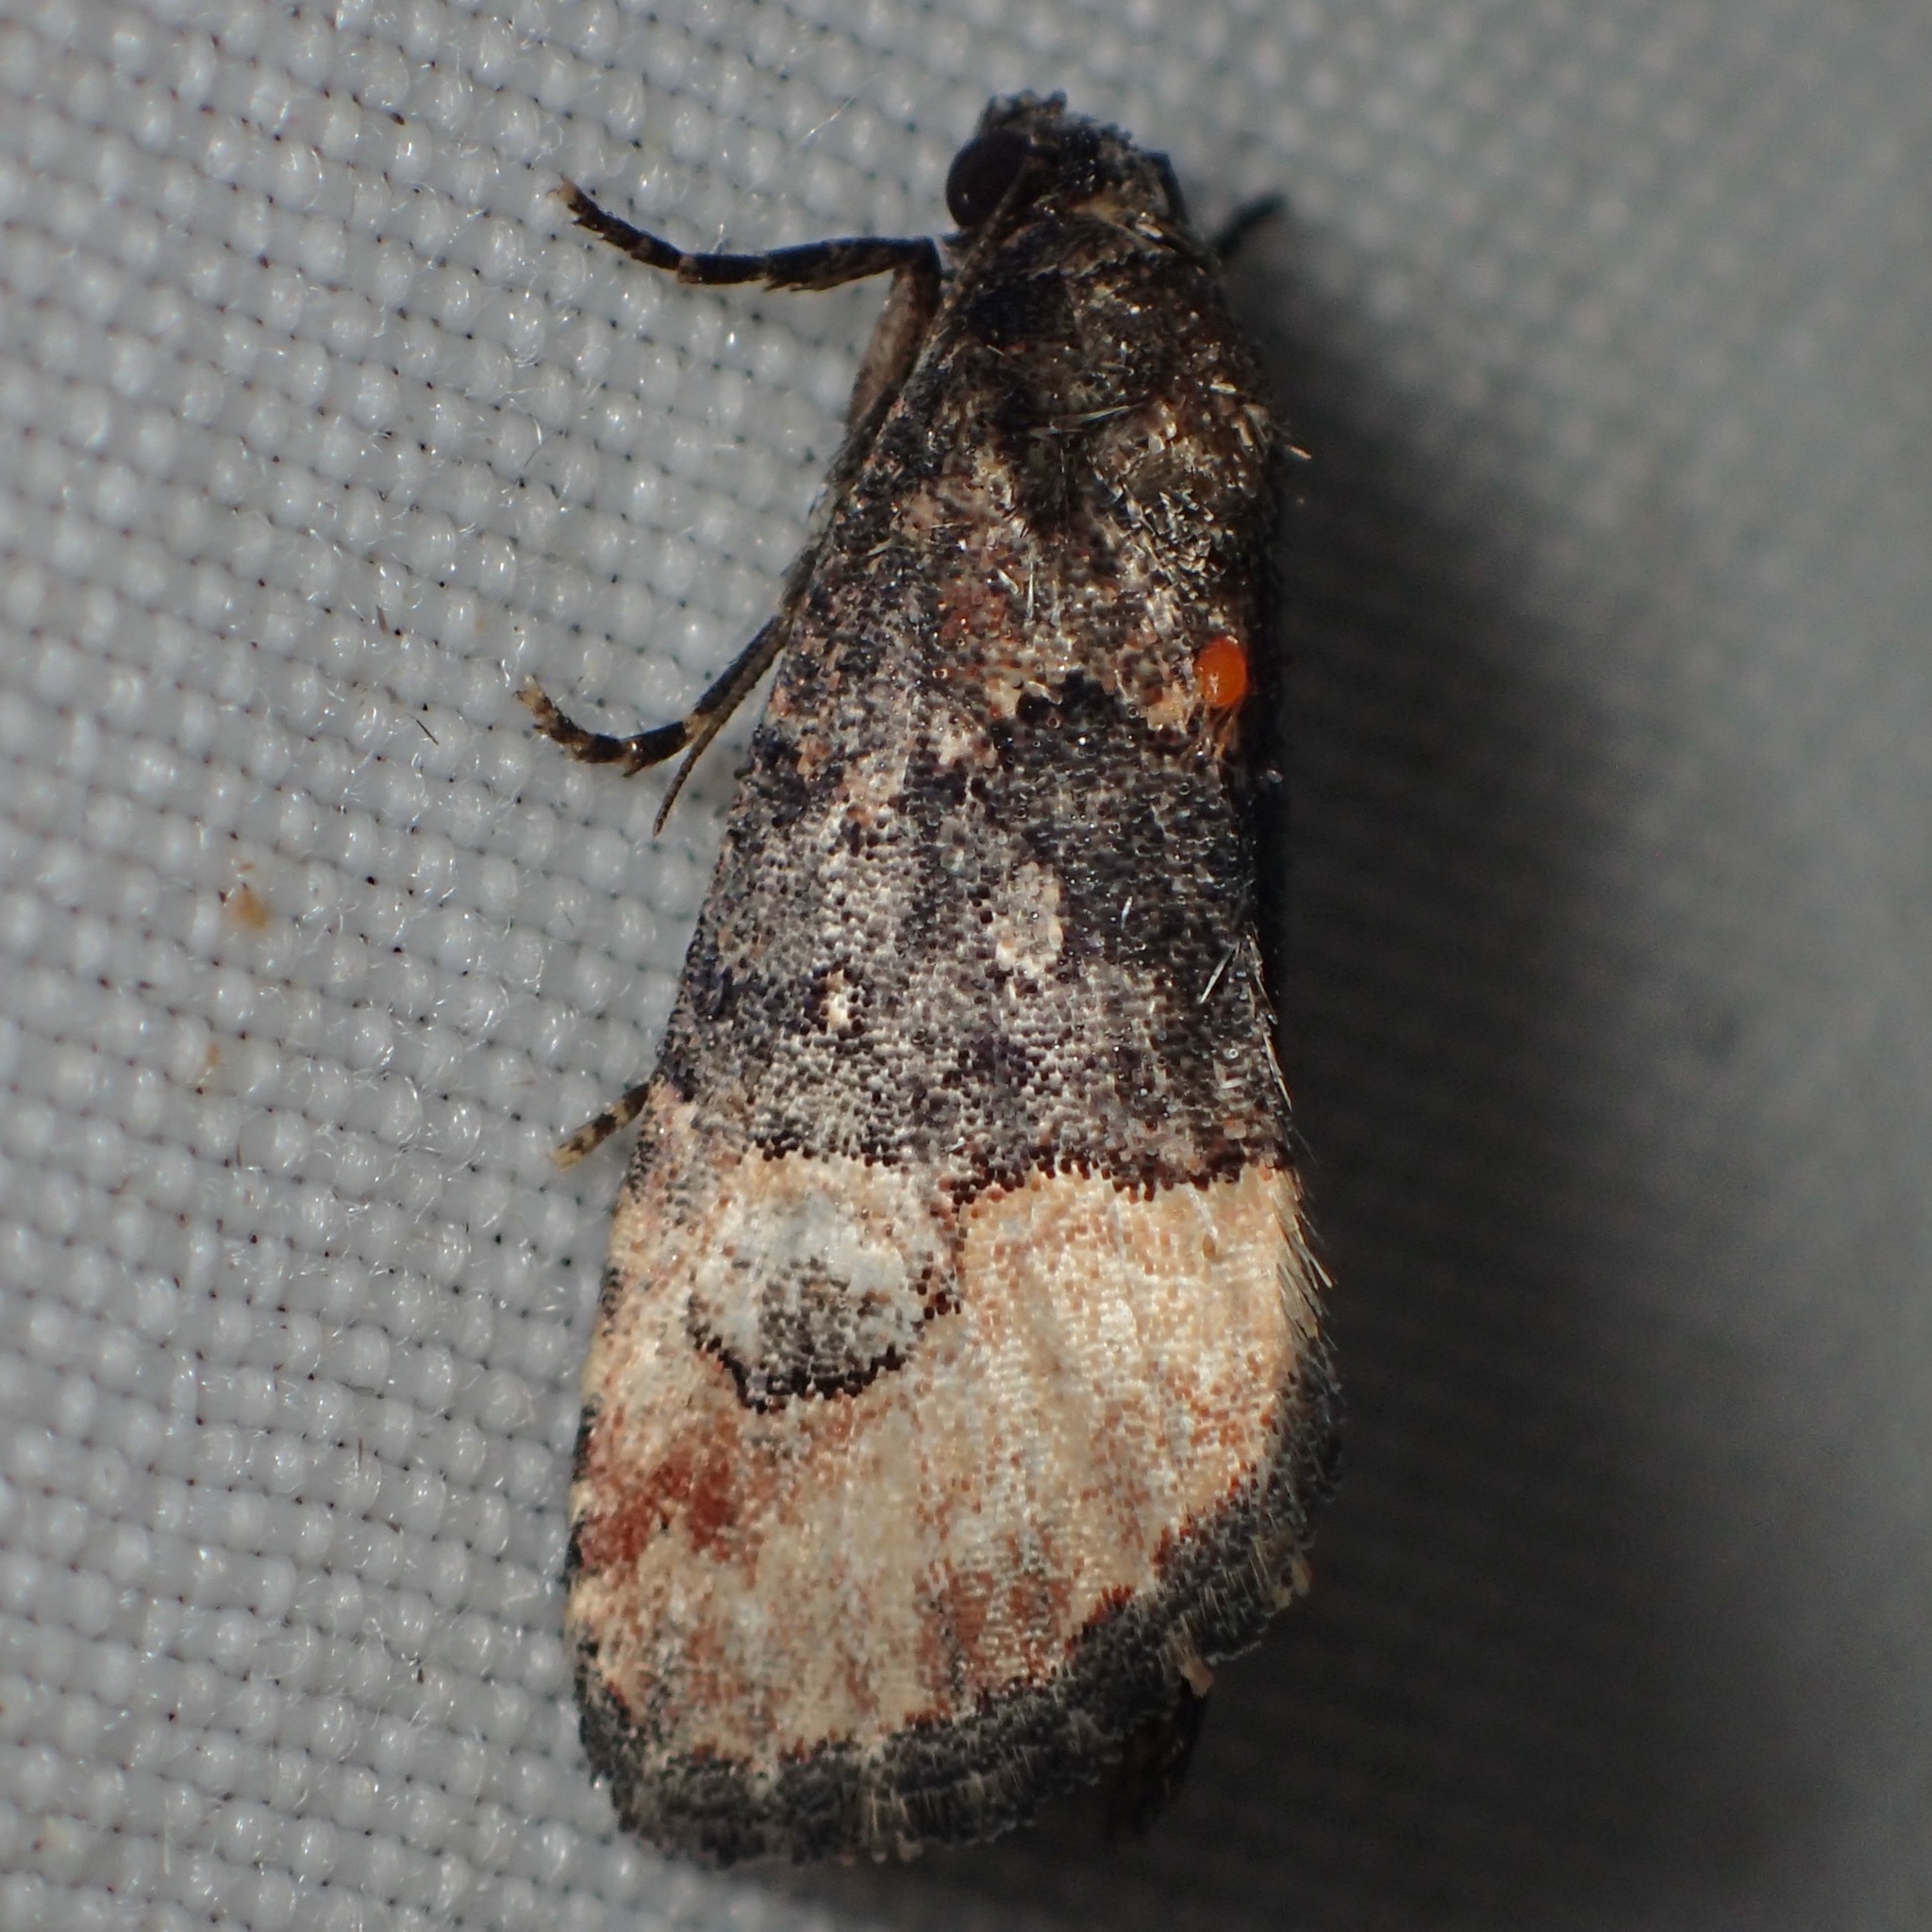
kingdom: Animalia
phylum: Arthropoda
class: Insecta
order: Lepidoptera
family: Noctuidae
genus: Ozarba
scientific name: Ozarba propera
